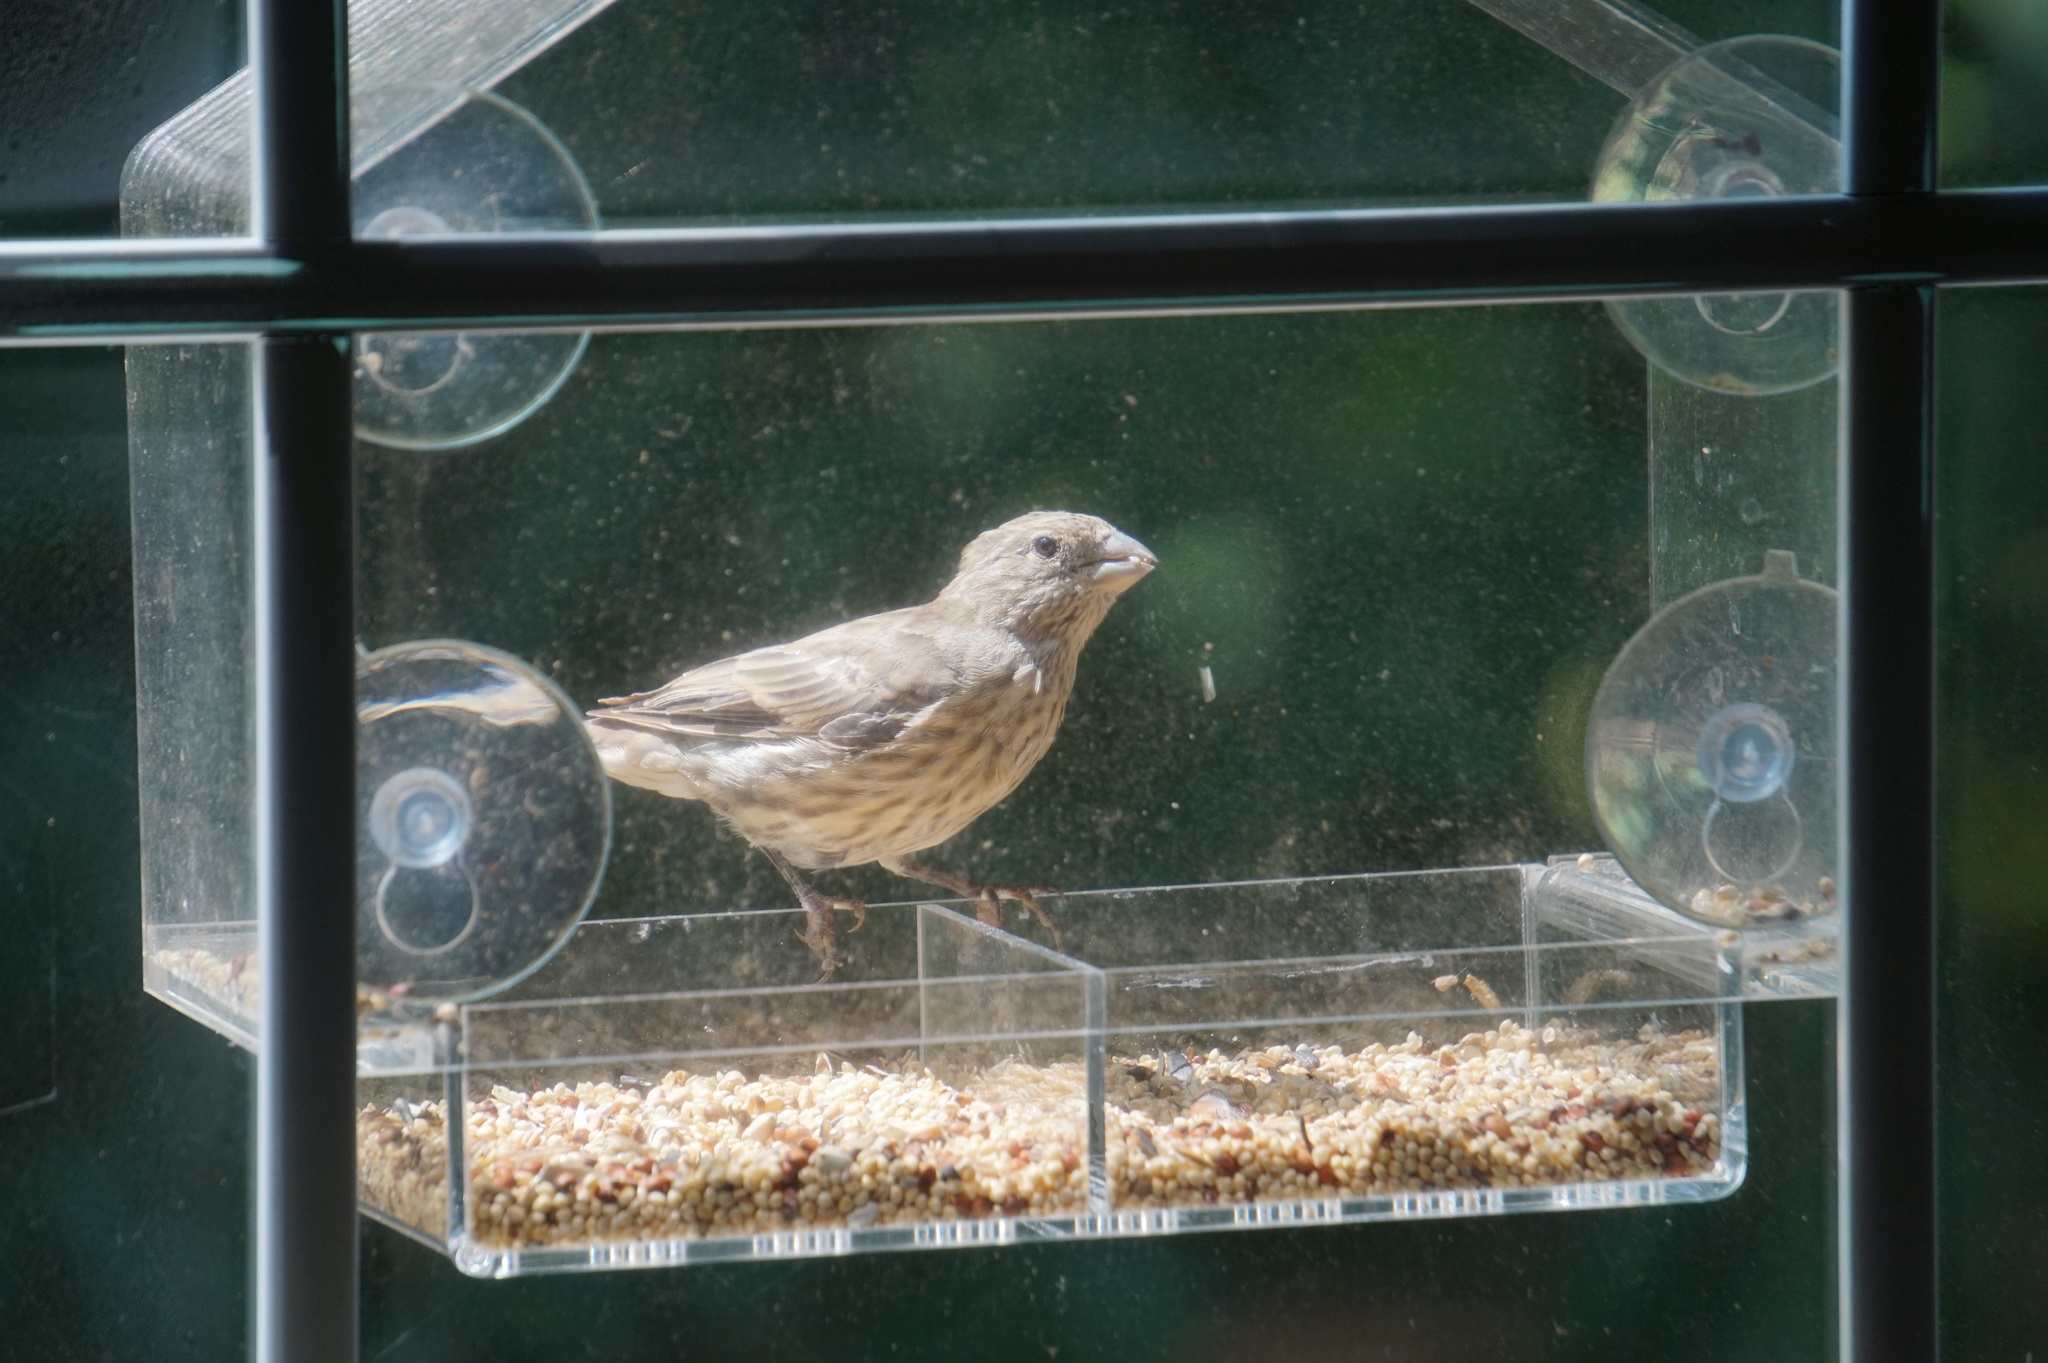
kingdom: Animalia
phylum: Chordata
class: Aves
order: Passeriformes
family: Fringillidae
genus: Haemorhous
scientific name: Haemorhous mexicanus
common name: House finch
